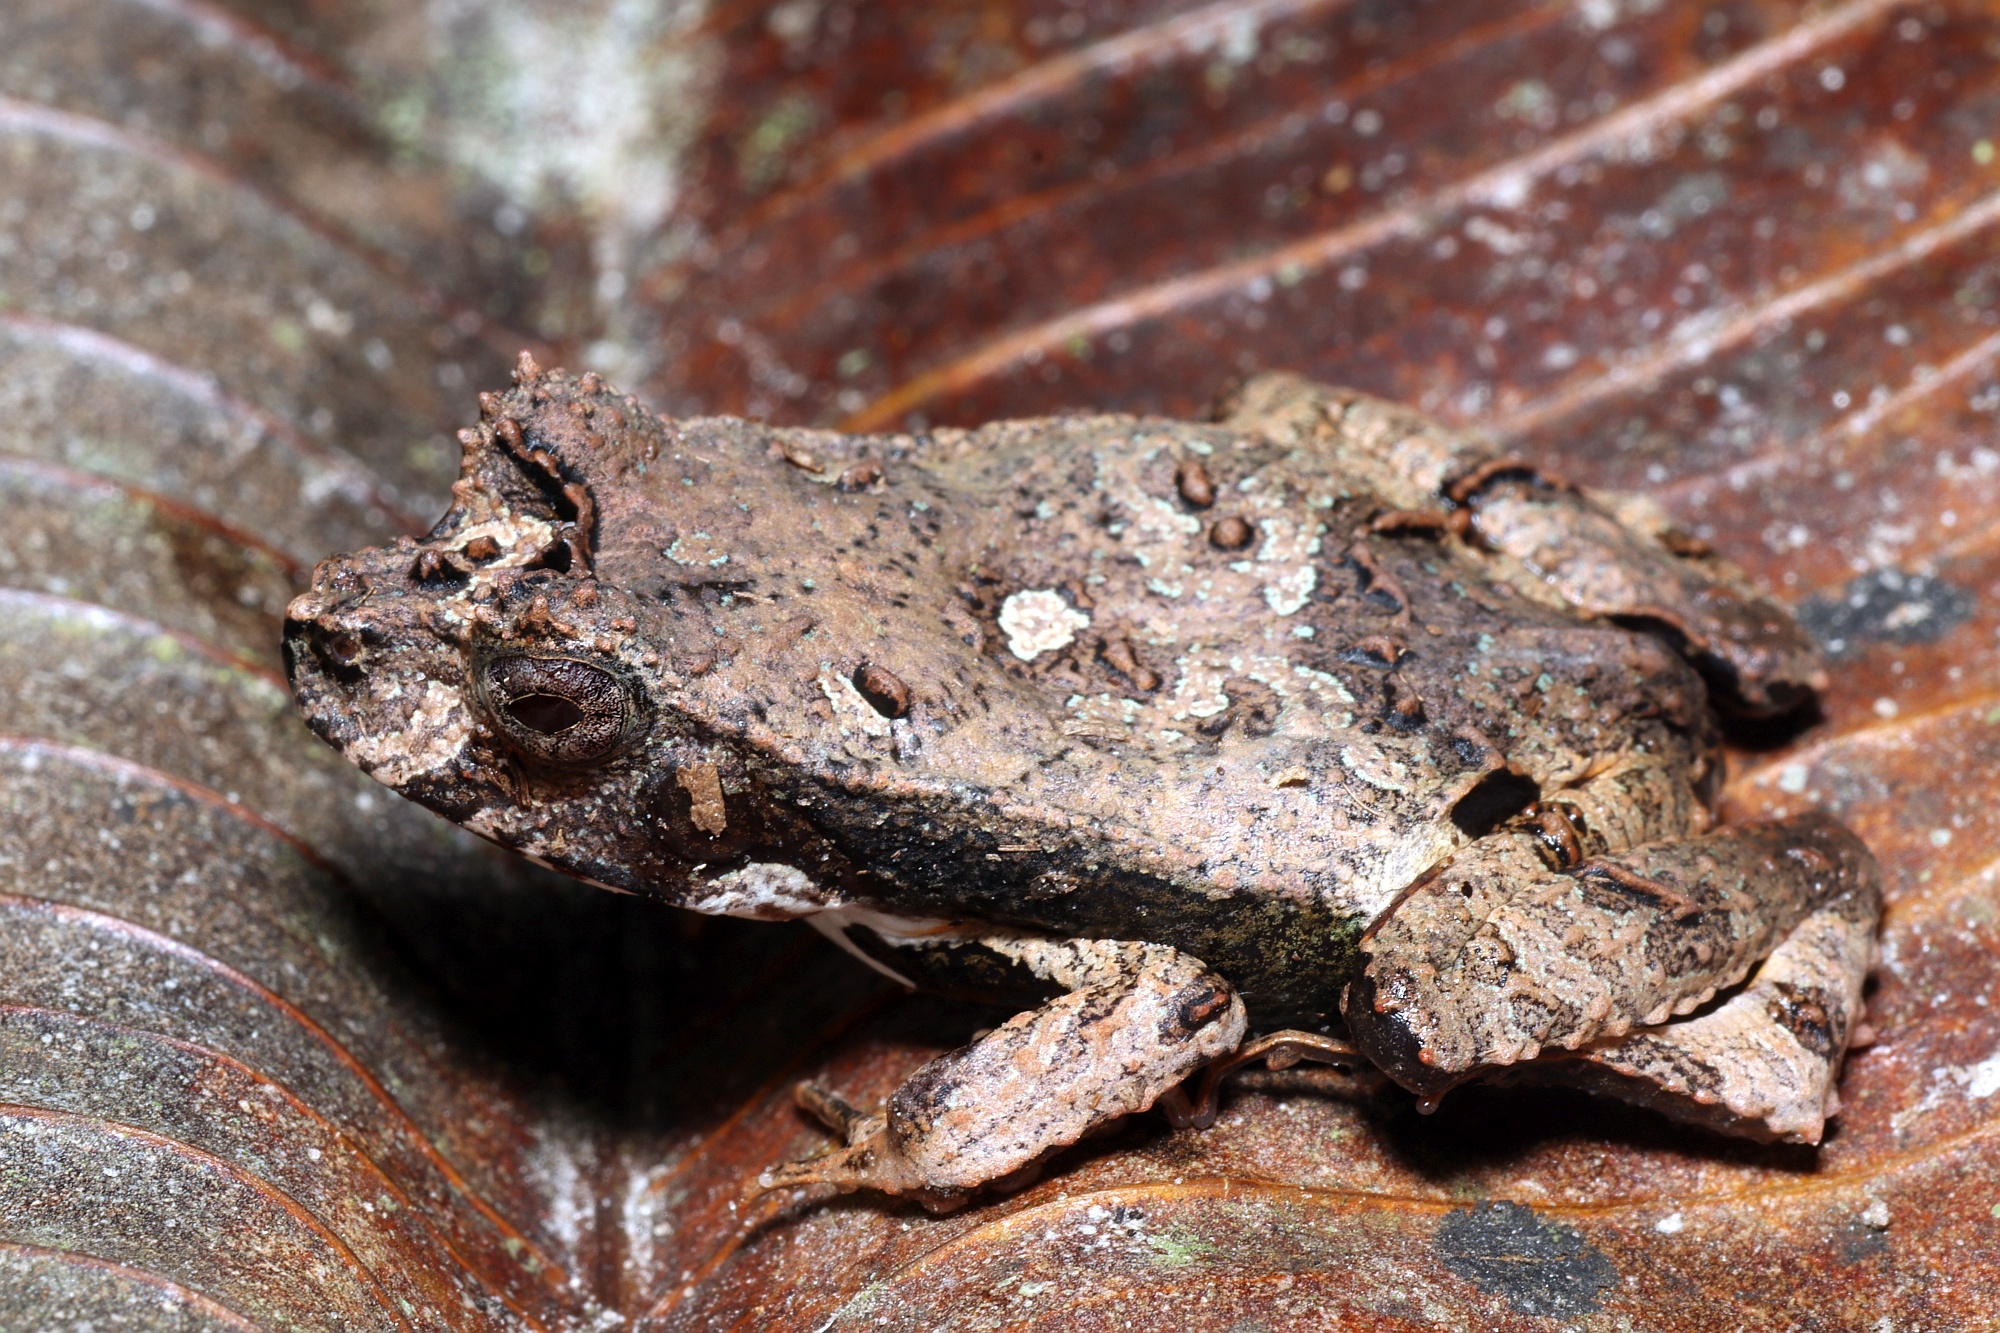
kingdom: Animalia
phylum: Chordata
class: Amphibia
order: Anura
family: Leptodactylidae
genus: Edalorhina
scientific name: Edalorhina perezi
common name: Perez’s snouted frog
